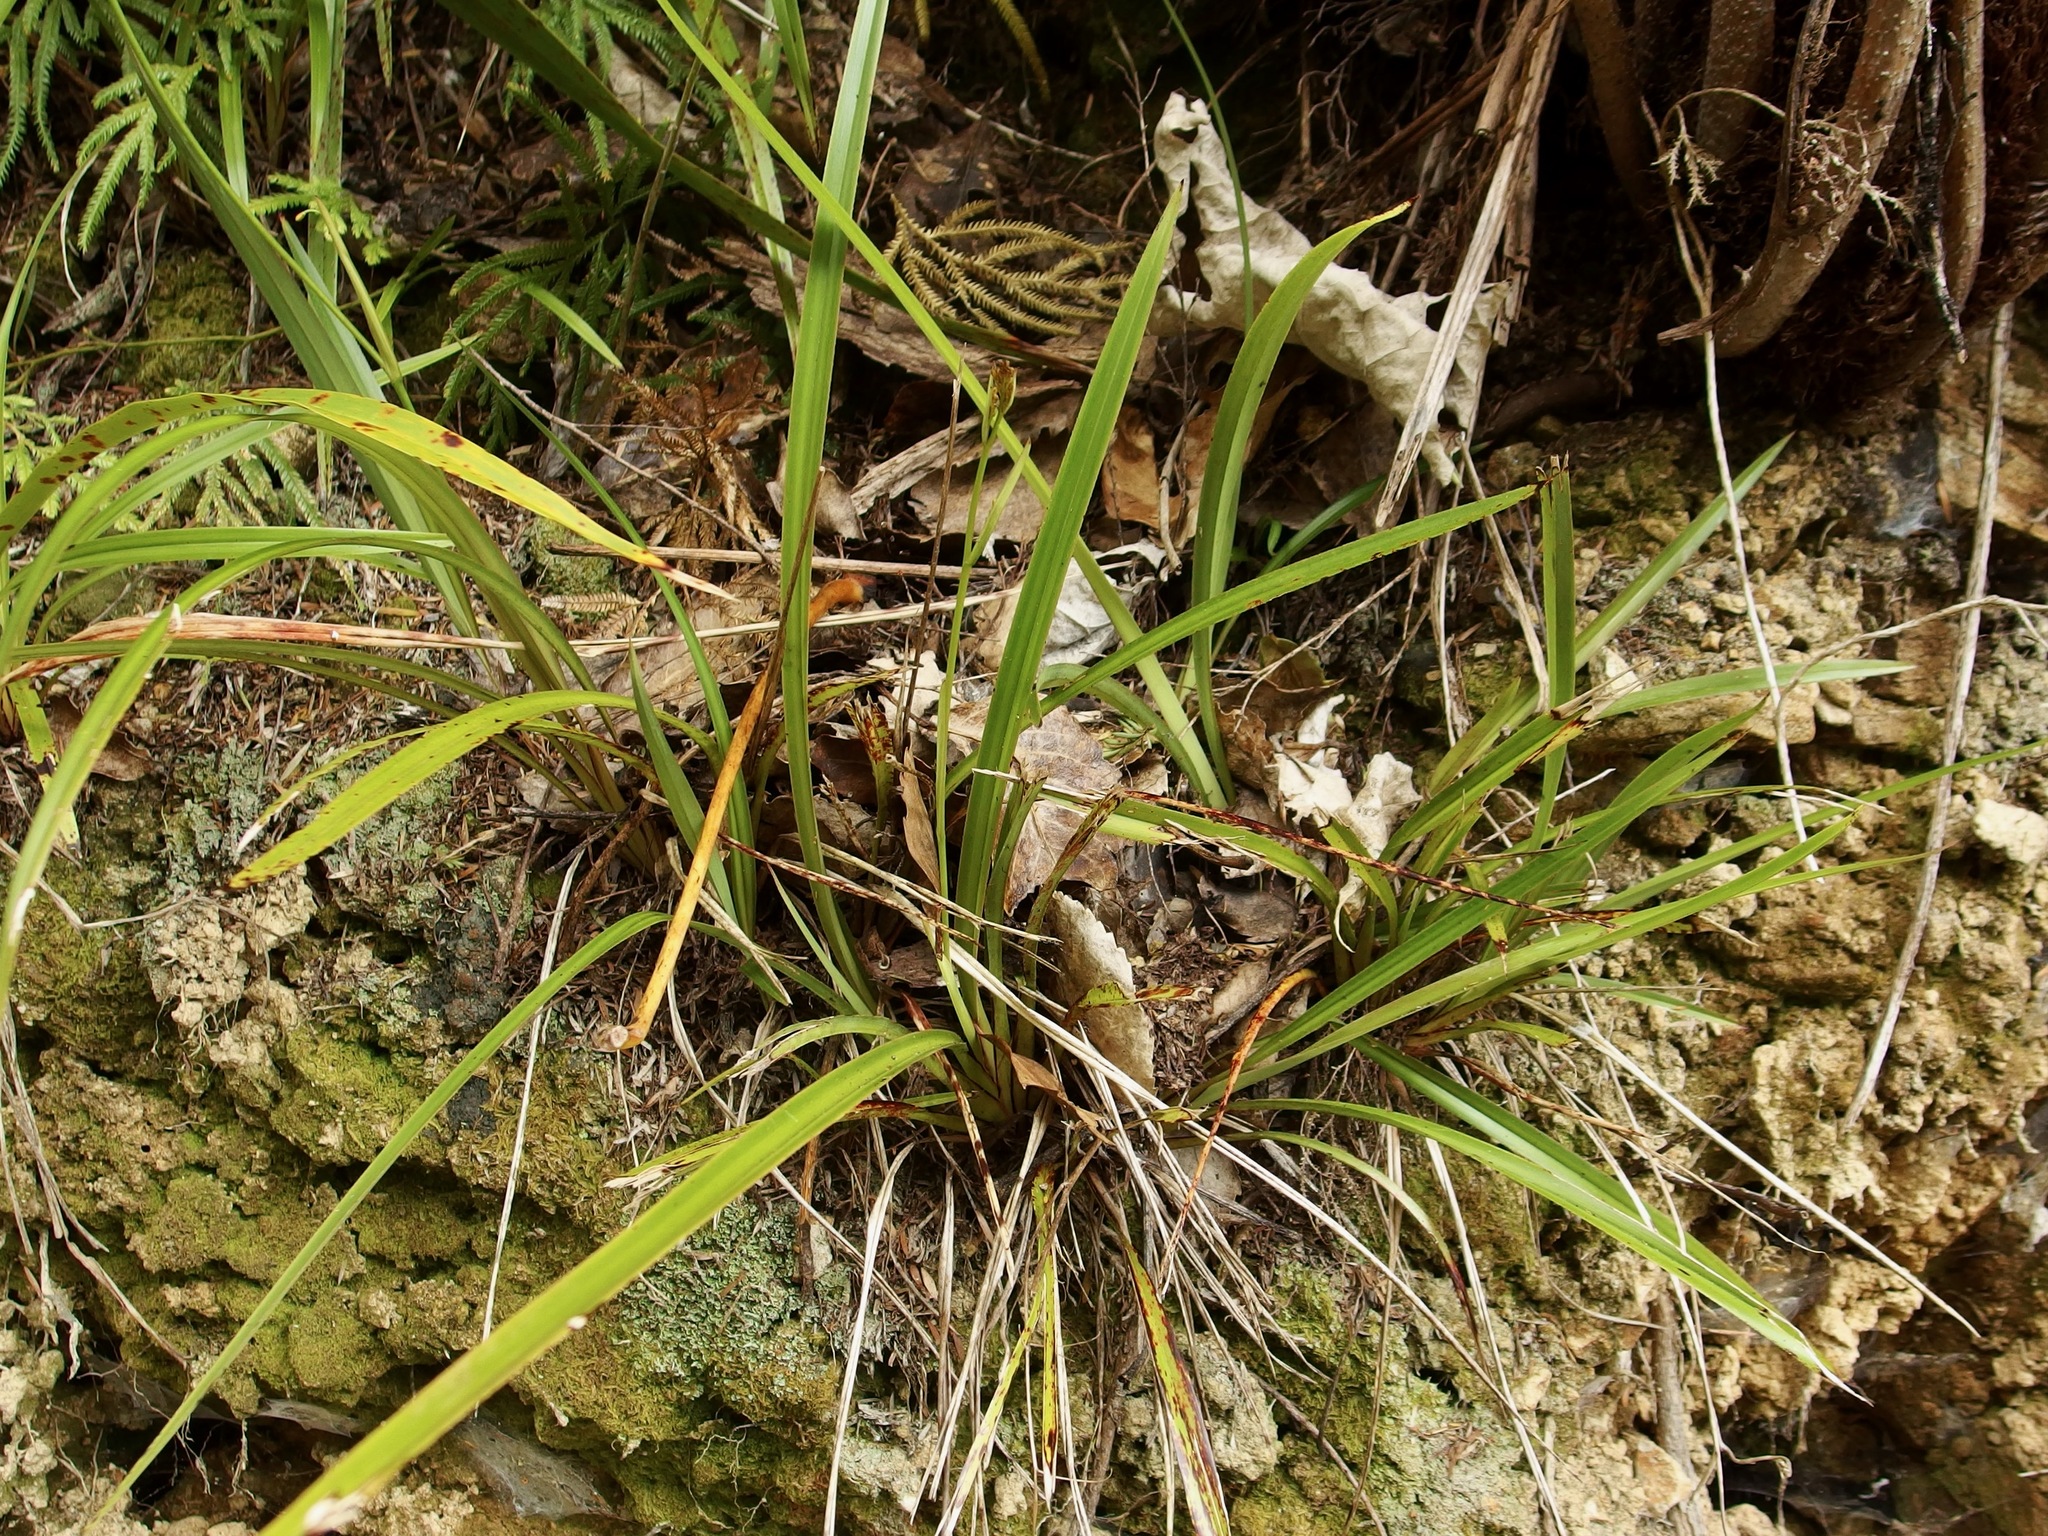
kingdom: Plantae
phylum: Tracheophyta
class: Liliopsida
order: Asparagales
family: Asphodelaceae
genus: Dianella
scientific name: Dianella nigra
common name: New zealand-blueberry
